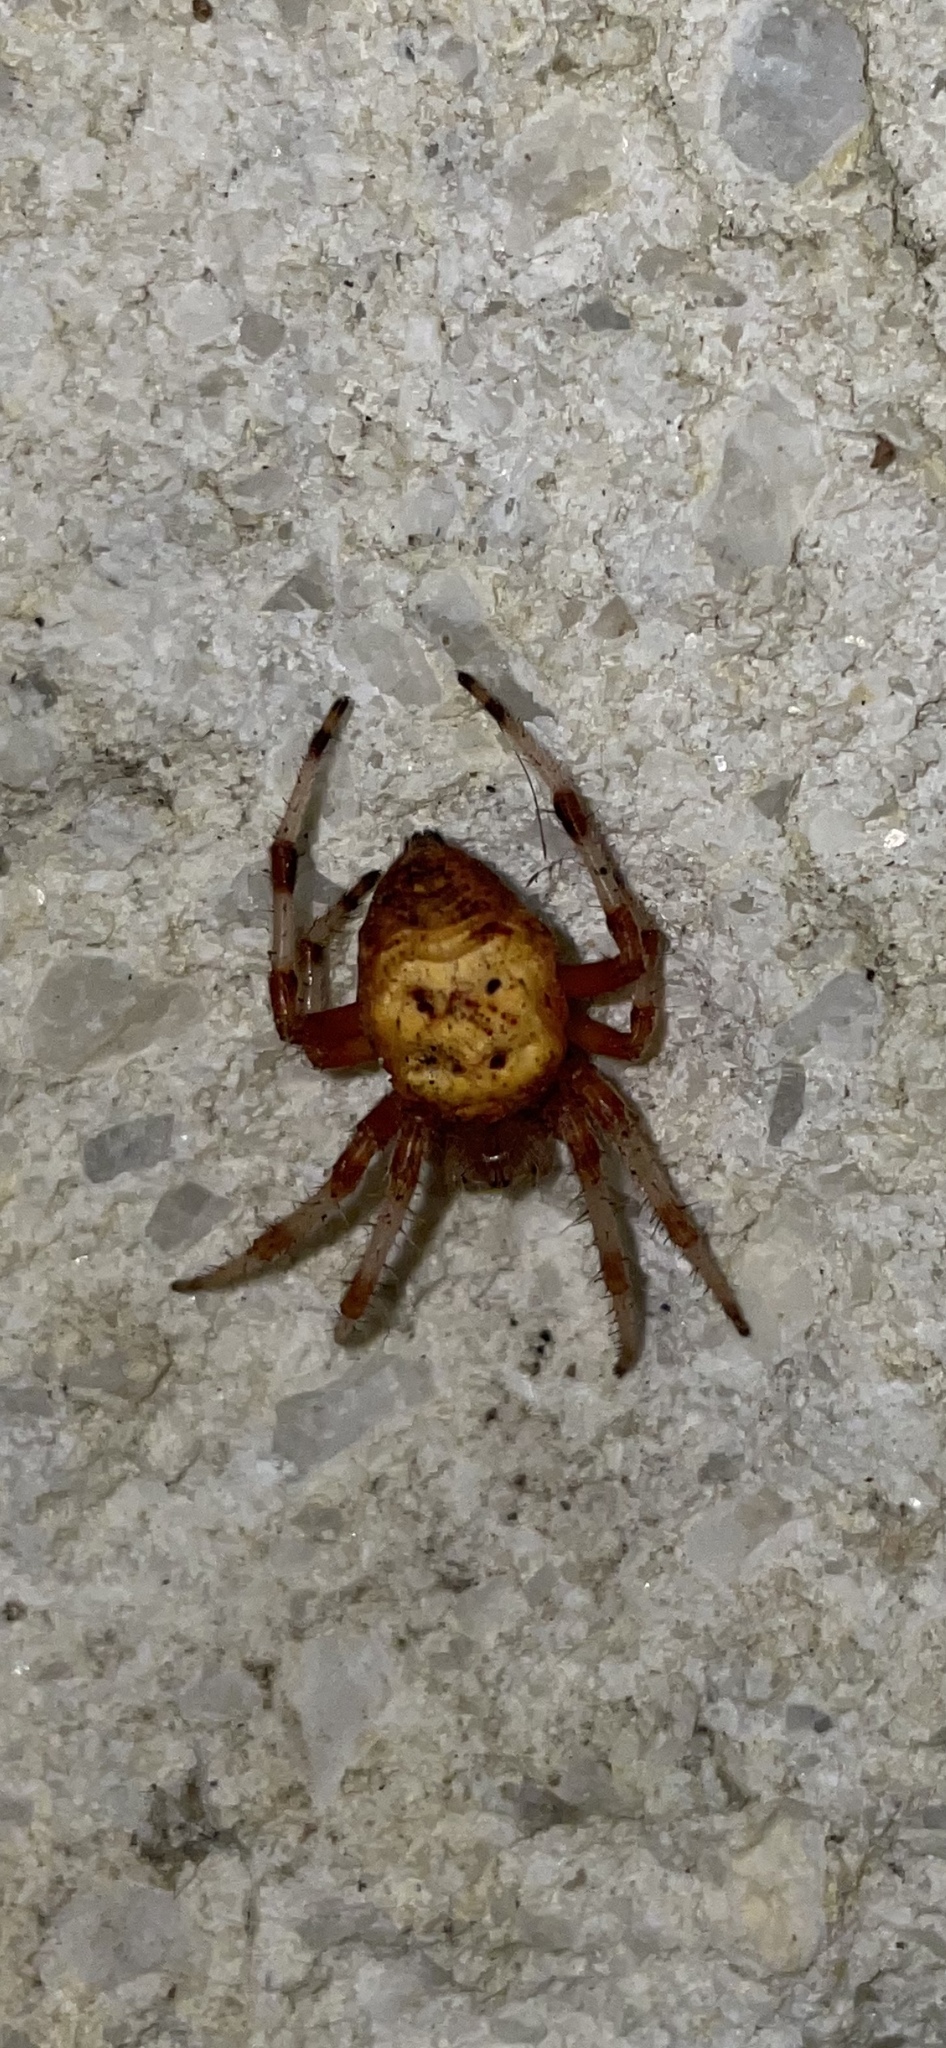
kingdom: Animalia
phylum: Arthropoda
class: Arachnida
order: Araneae
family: Araneidae
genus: Araneus
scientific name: Araneus marmoreus
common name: Marbled orbweaver
